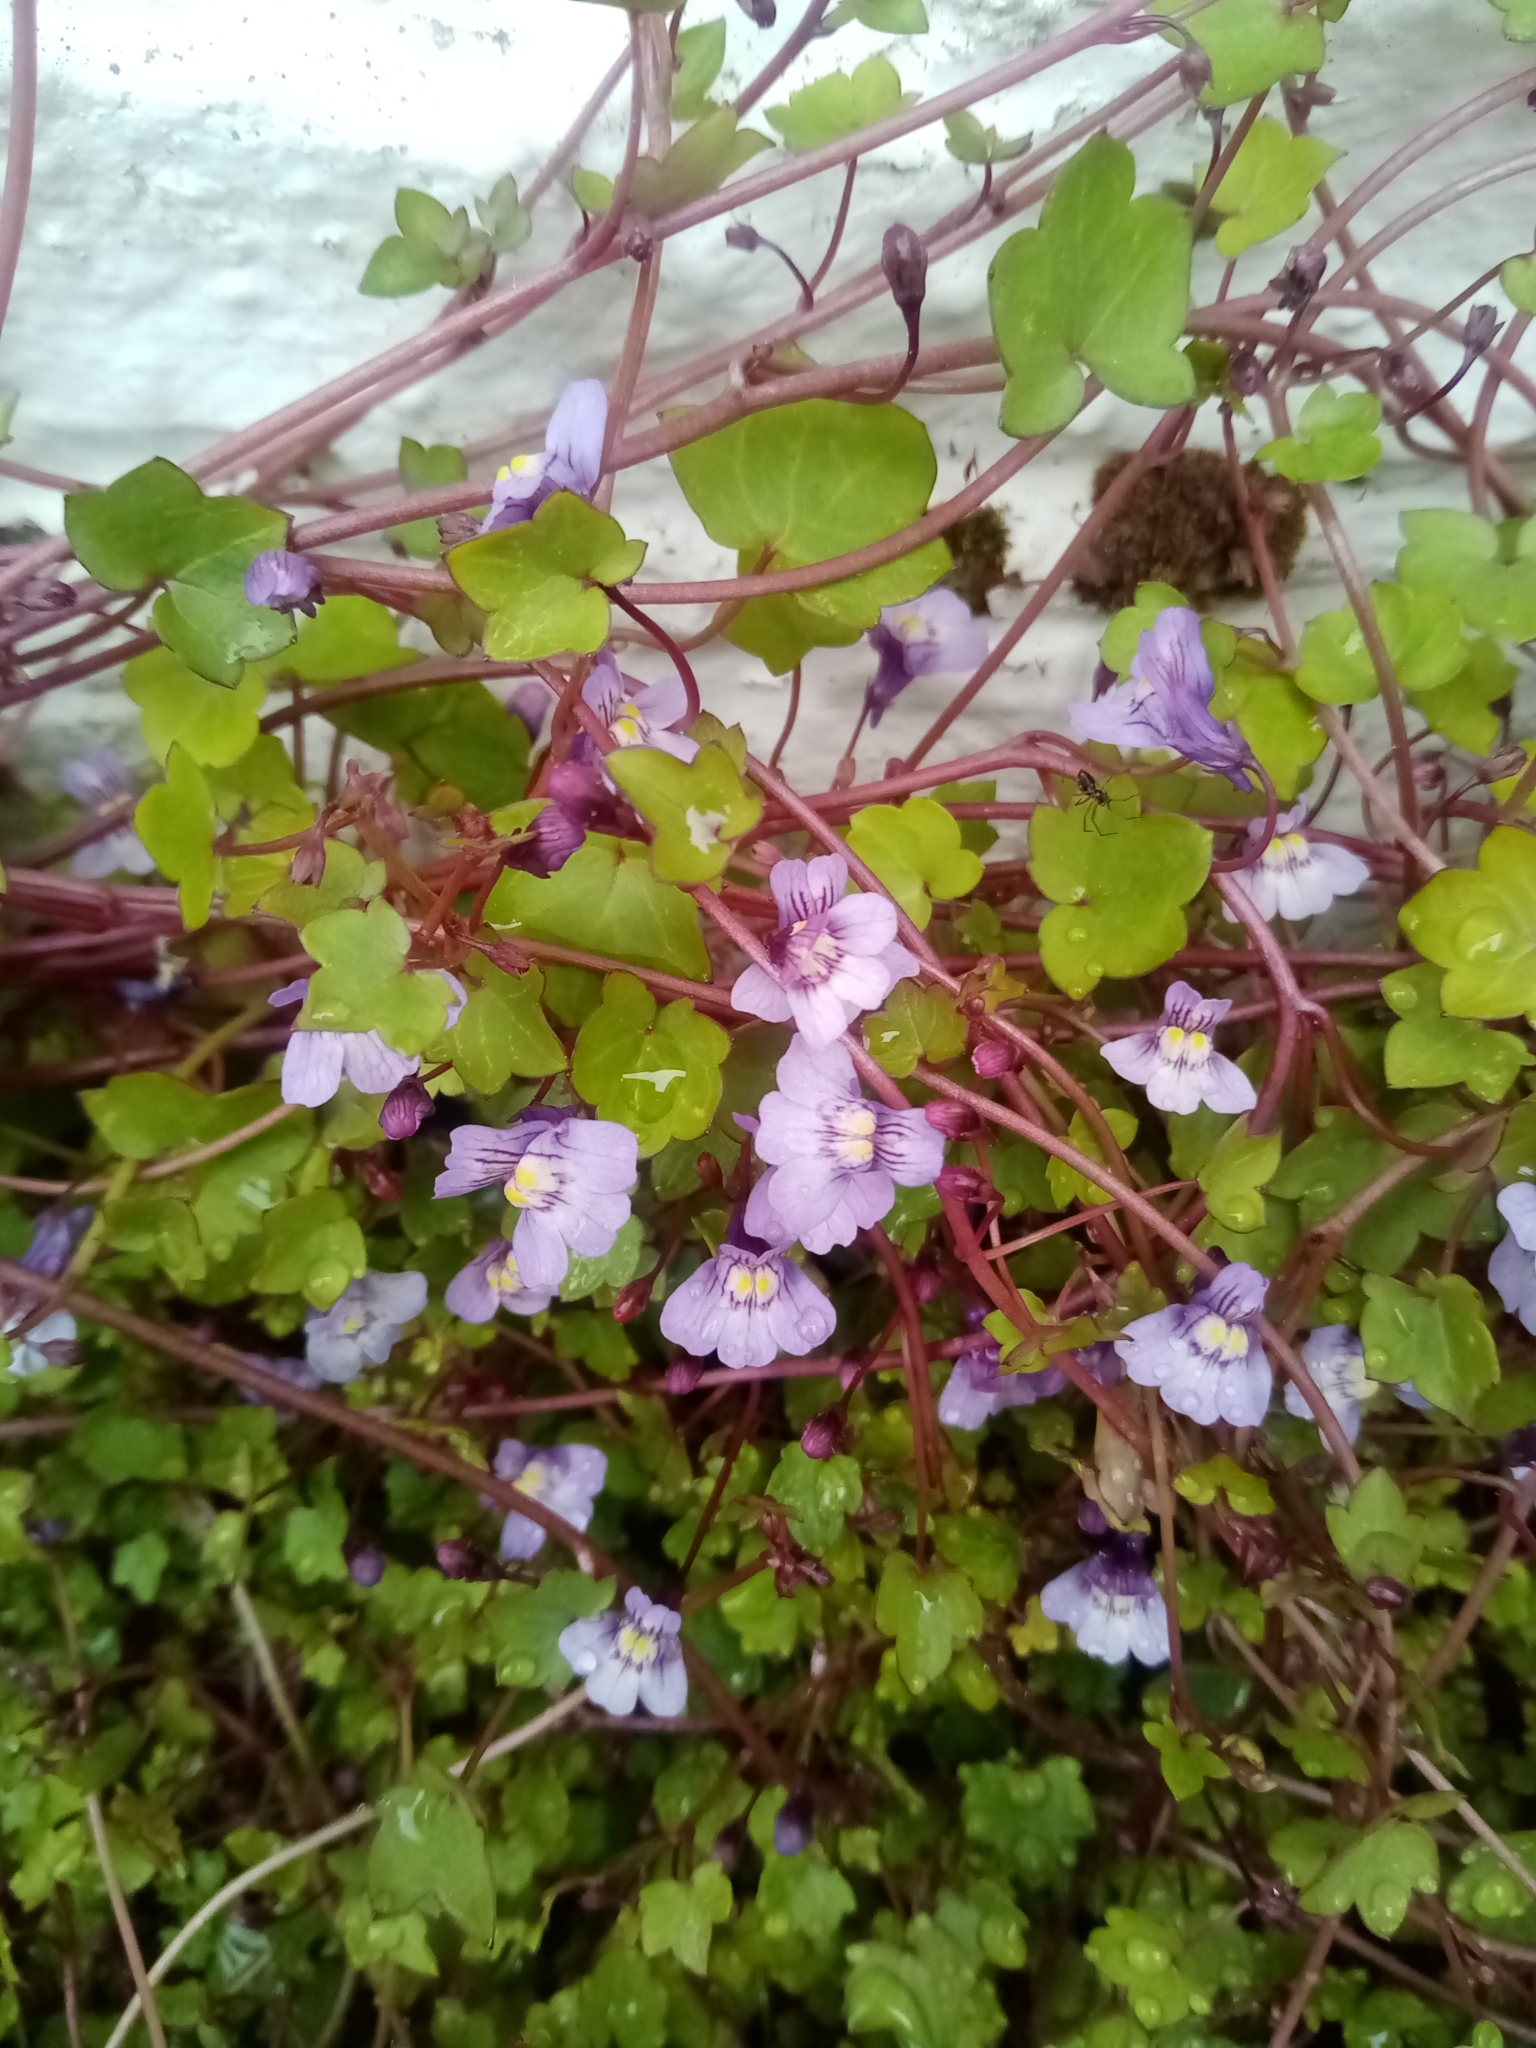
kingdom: Plantae
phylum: Tracheophyta
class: Magnoliopsida
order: Lamiales
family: Plantaginaceae
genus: Cymbalaria
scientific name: Cymbalaria muralis
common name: Ivy-leaved toadflax
